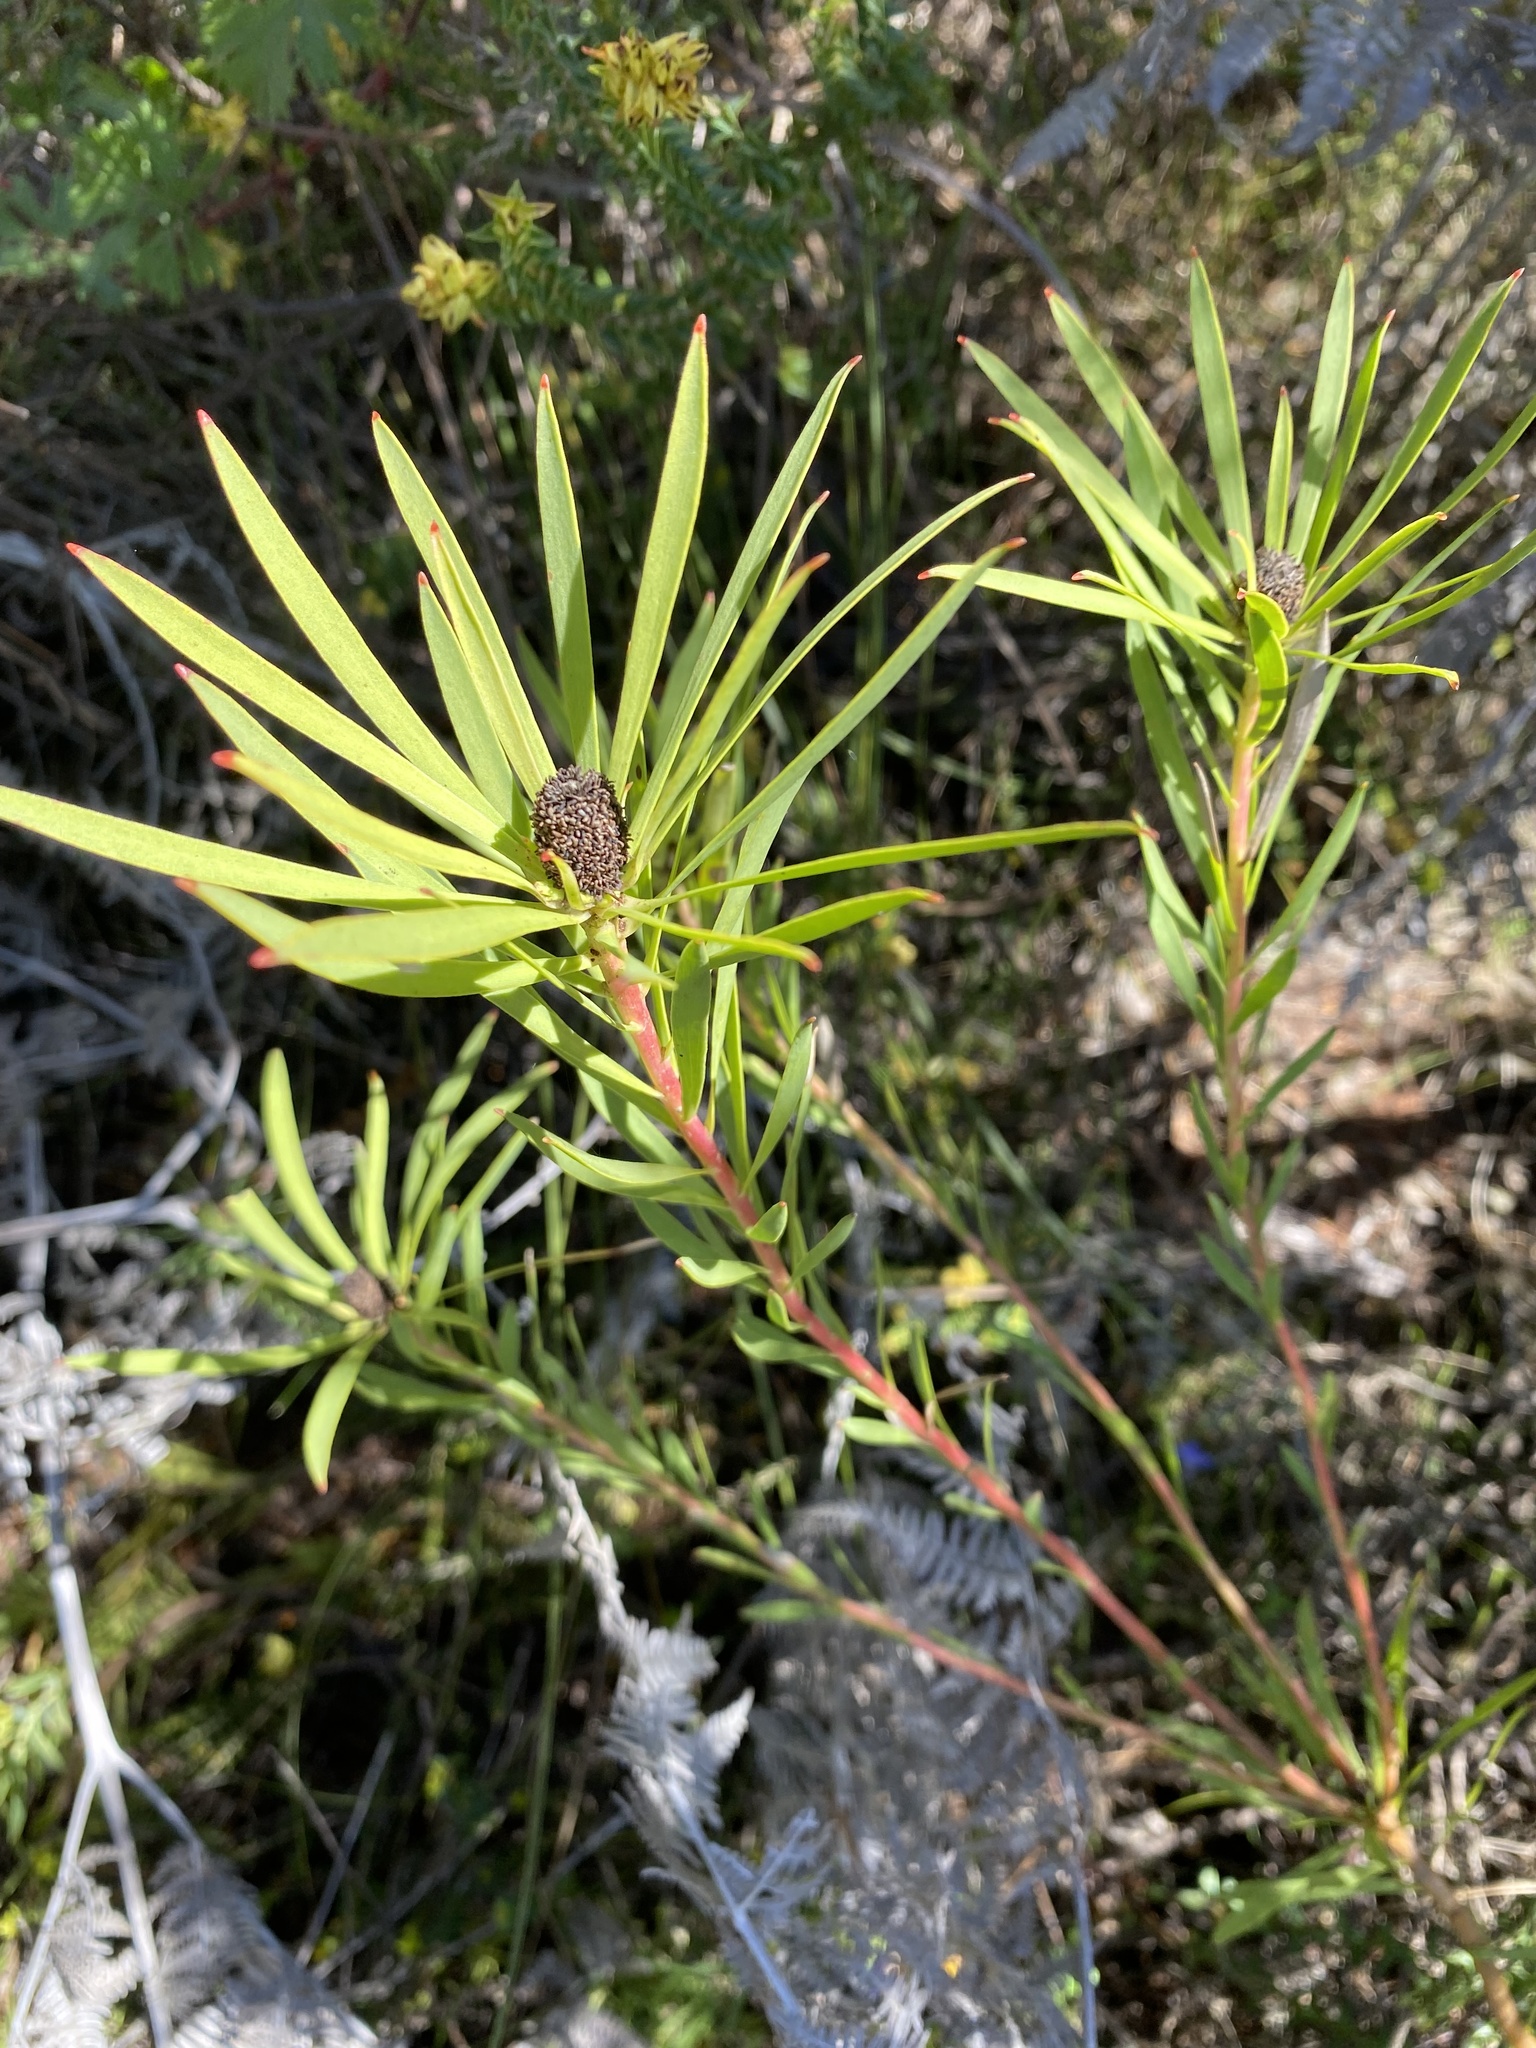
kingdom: Plantae
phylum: Tracheophyta
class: Magnoliopsida
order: Proteales
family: Proteaceae
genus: Leucadendron
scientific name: Leucadendron salignum
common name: Common sunshine conebush
